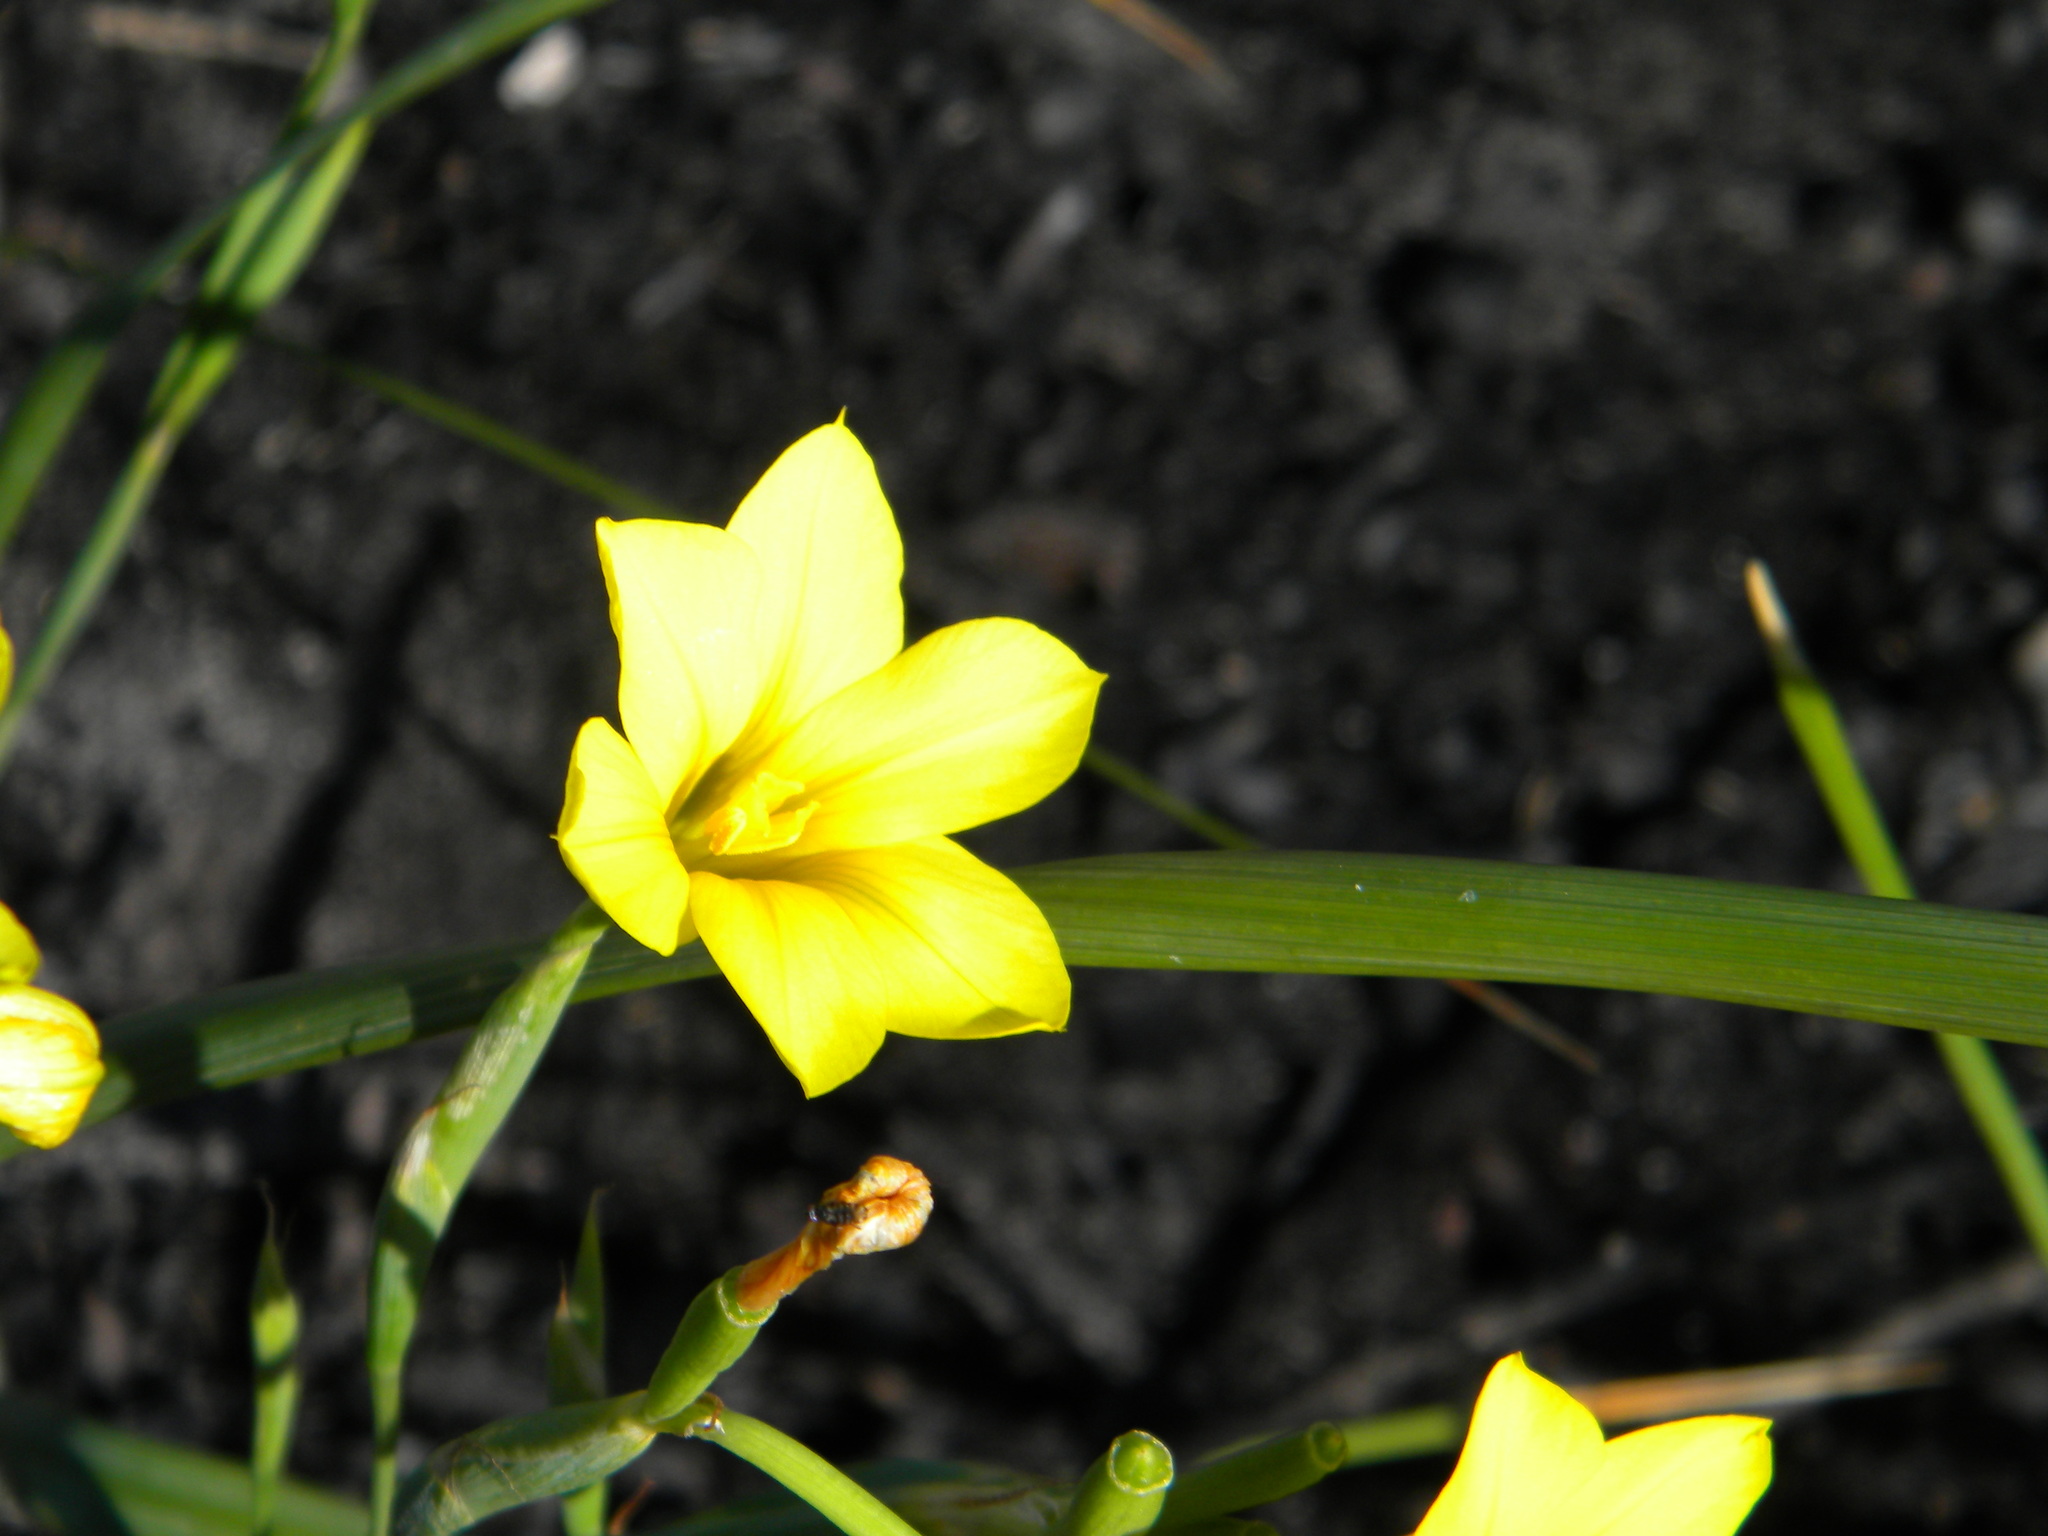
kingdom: Plantae
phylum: Tracheophyta
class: Liliopsida
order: Asparagales
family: Iridaceae
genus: Moraea
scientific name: Moraea ochroleuca
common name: Red tulp
